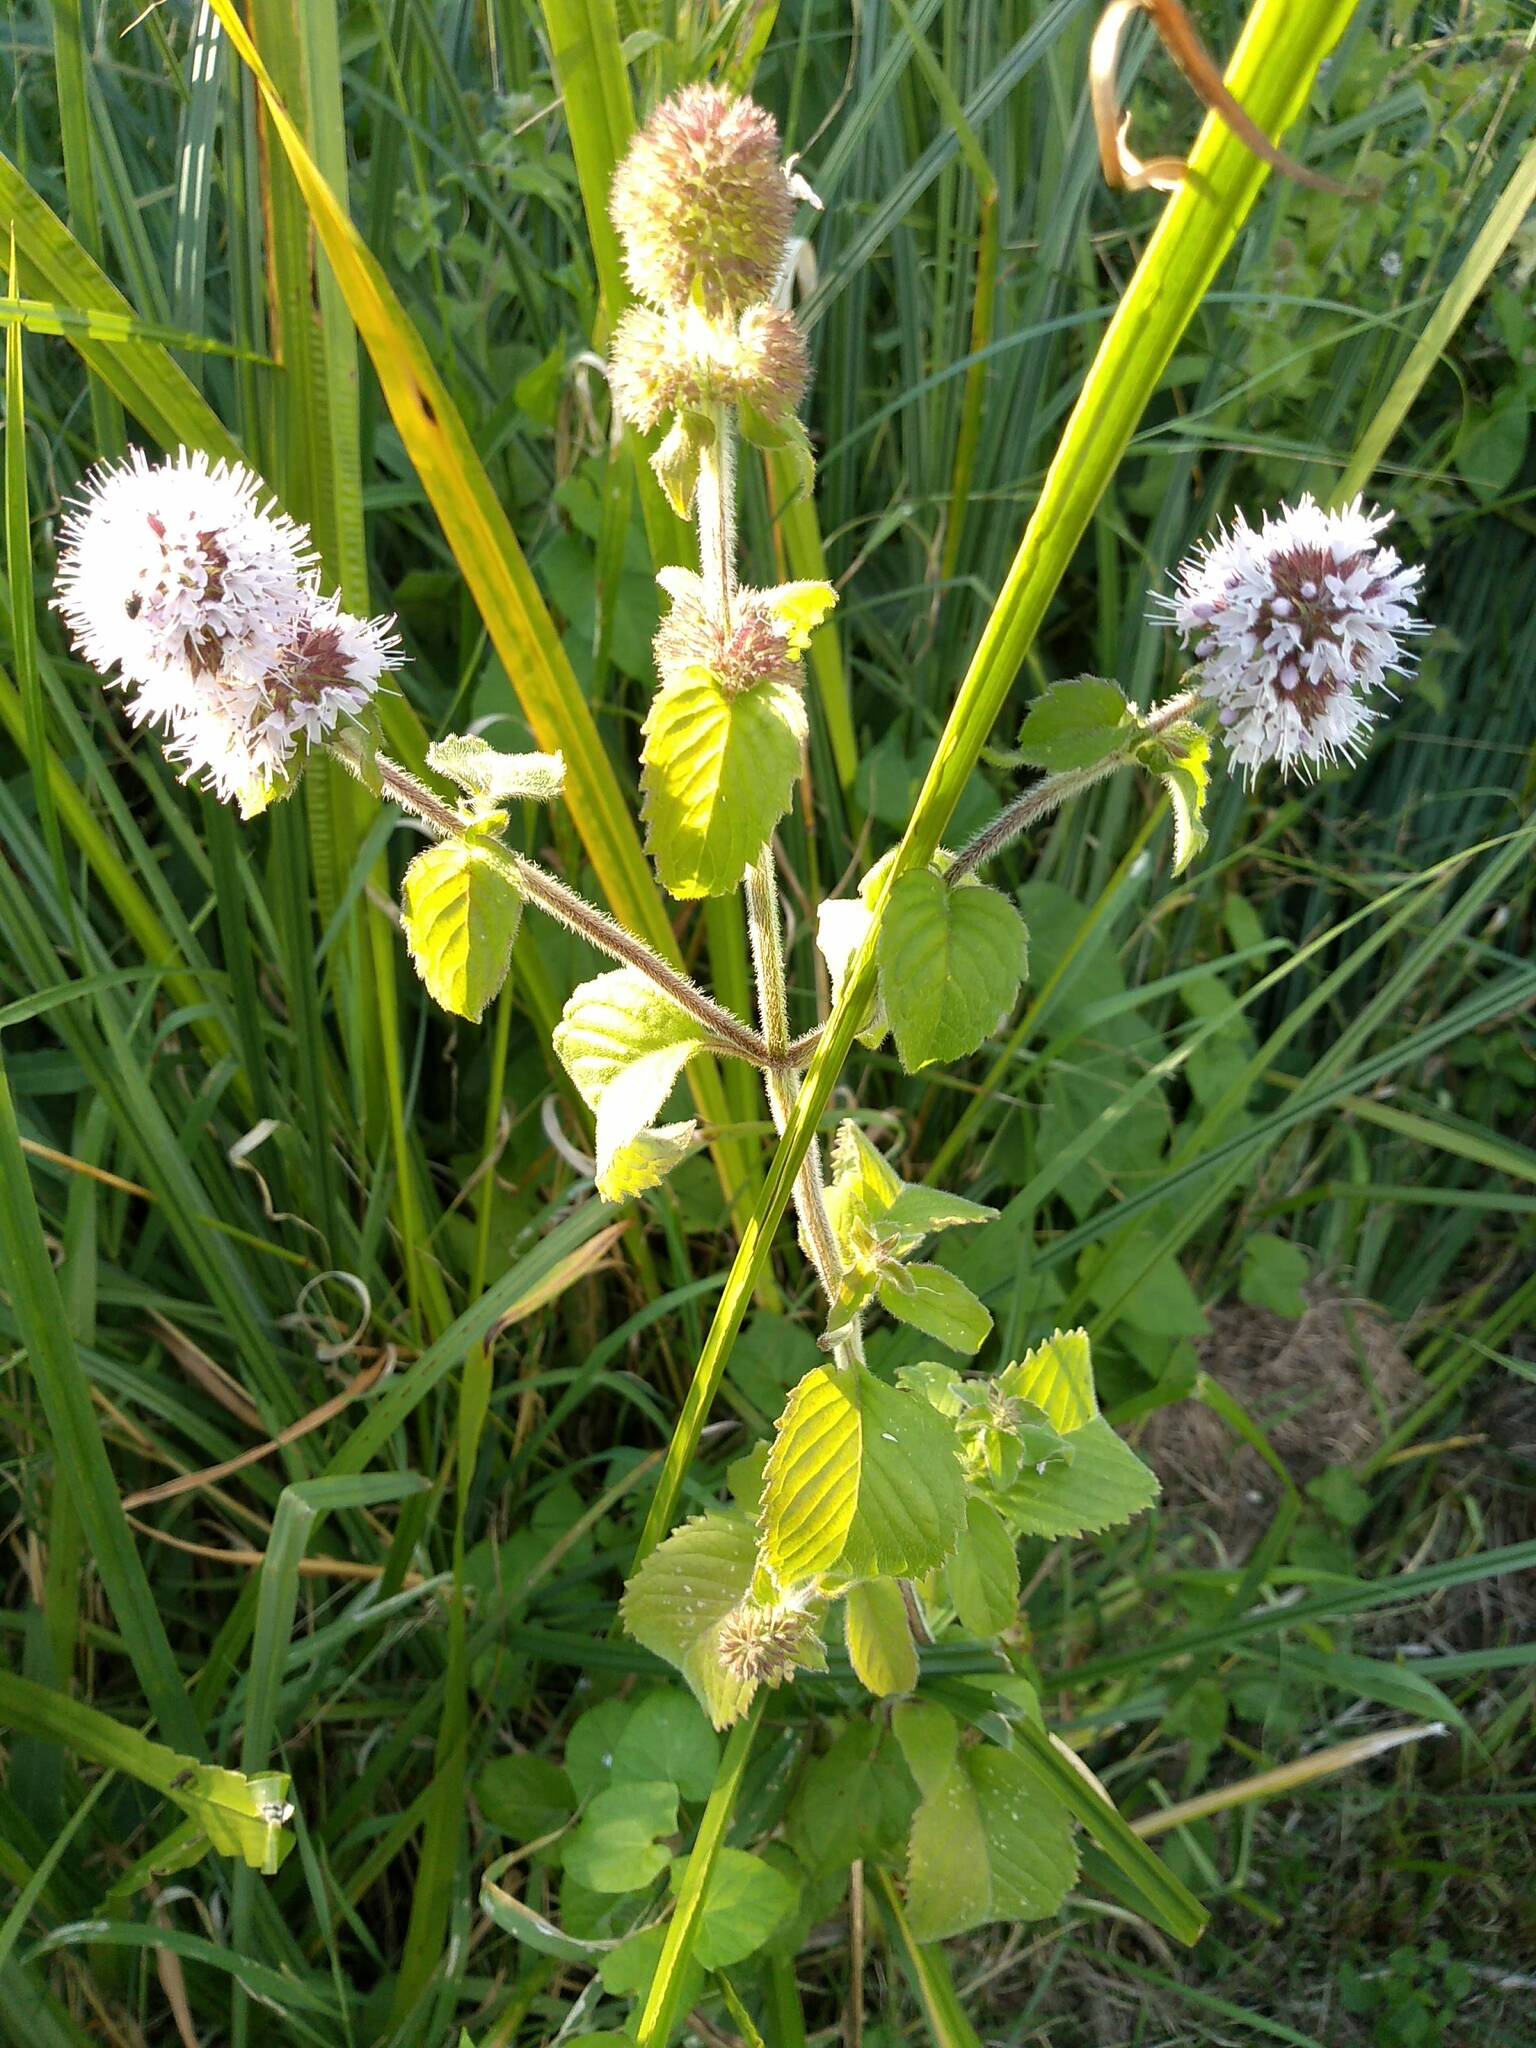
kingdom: Plantae
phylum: Tracheophyta
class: Magnoliopsida
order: Lamiales
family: Lamiaceae
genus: Mentha
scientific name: Mentha aquatica
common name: Water mint
